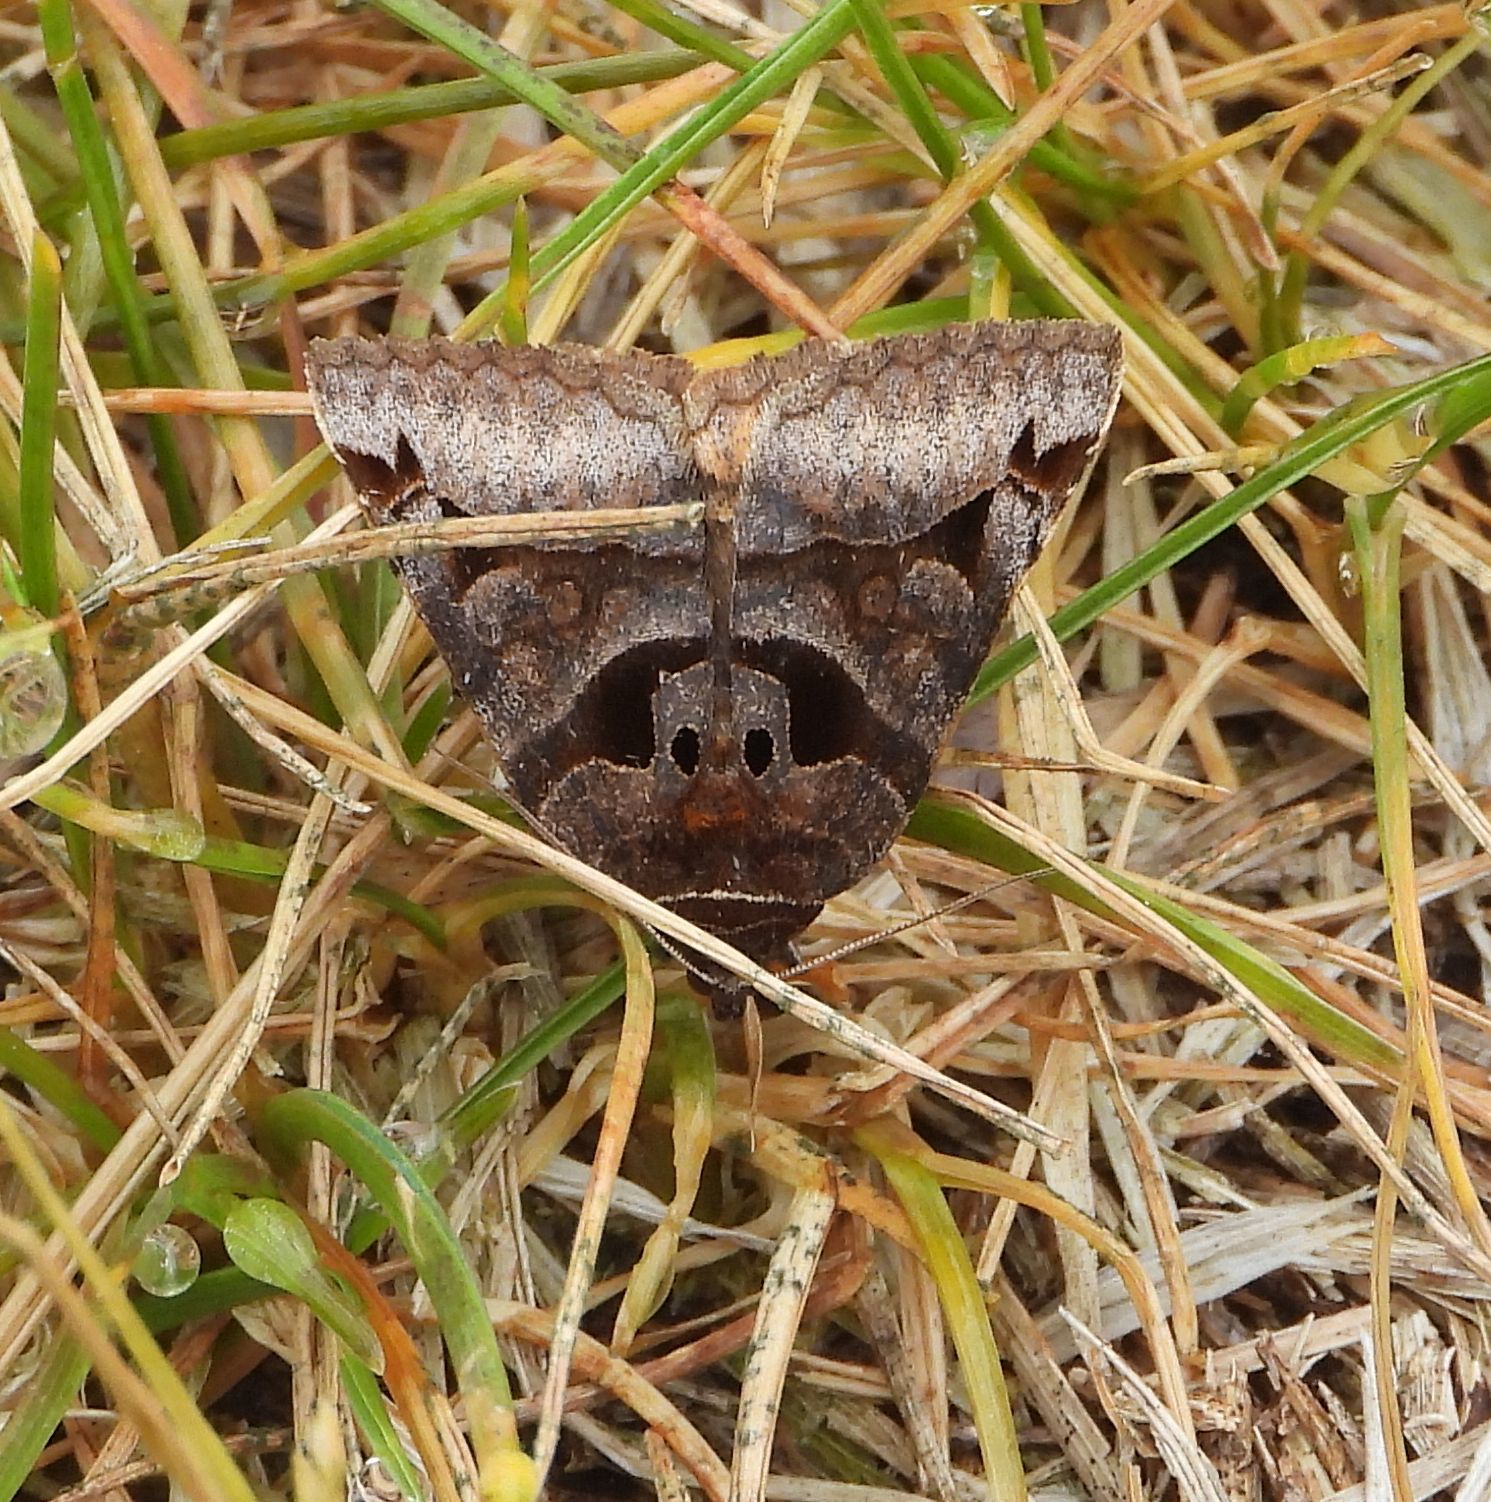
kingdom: Animalia
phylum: Arthropoda
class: Insecta
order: Lepidoptera
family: Erebidae
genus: Euclidia
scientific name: Euclidia cuspidea
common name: Toothed somberwing
